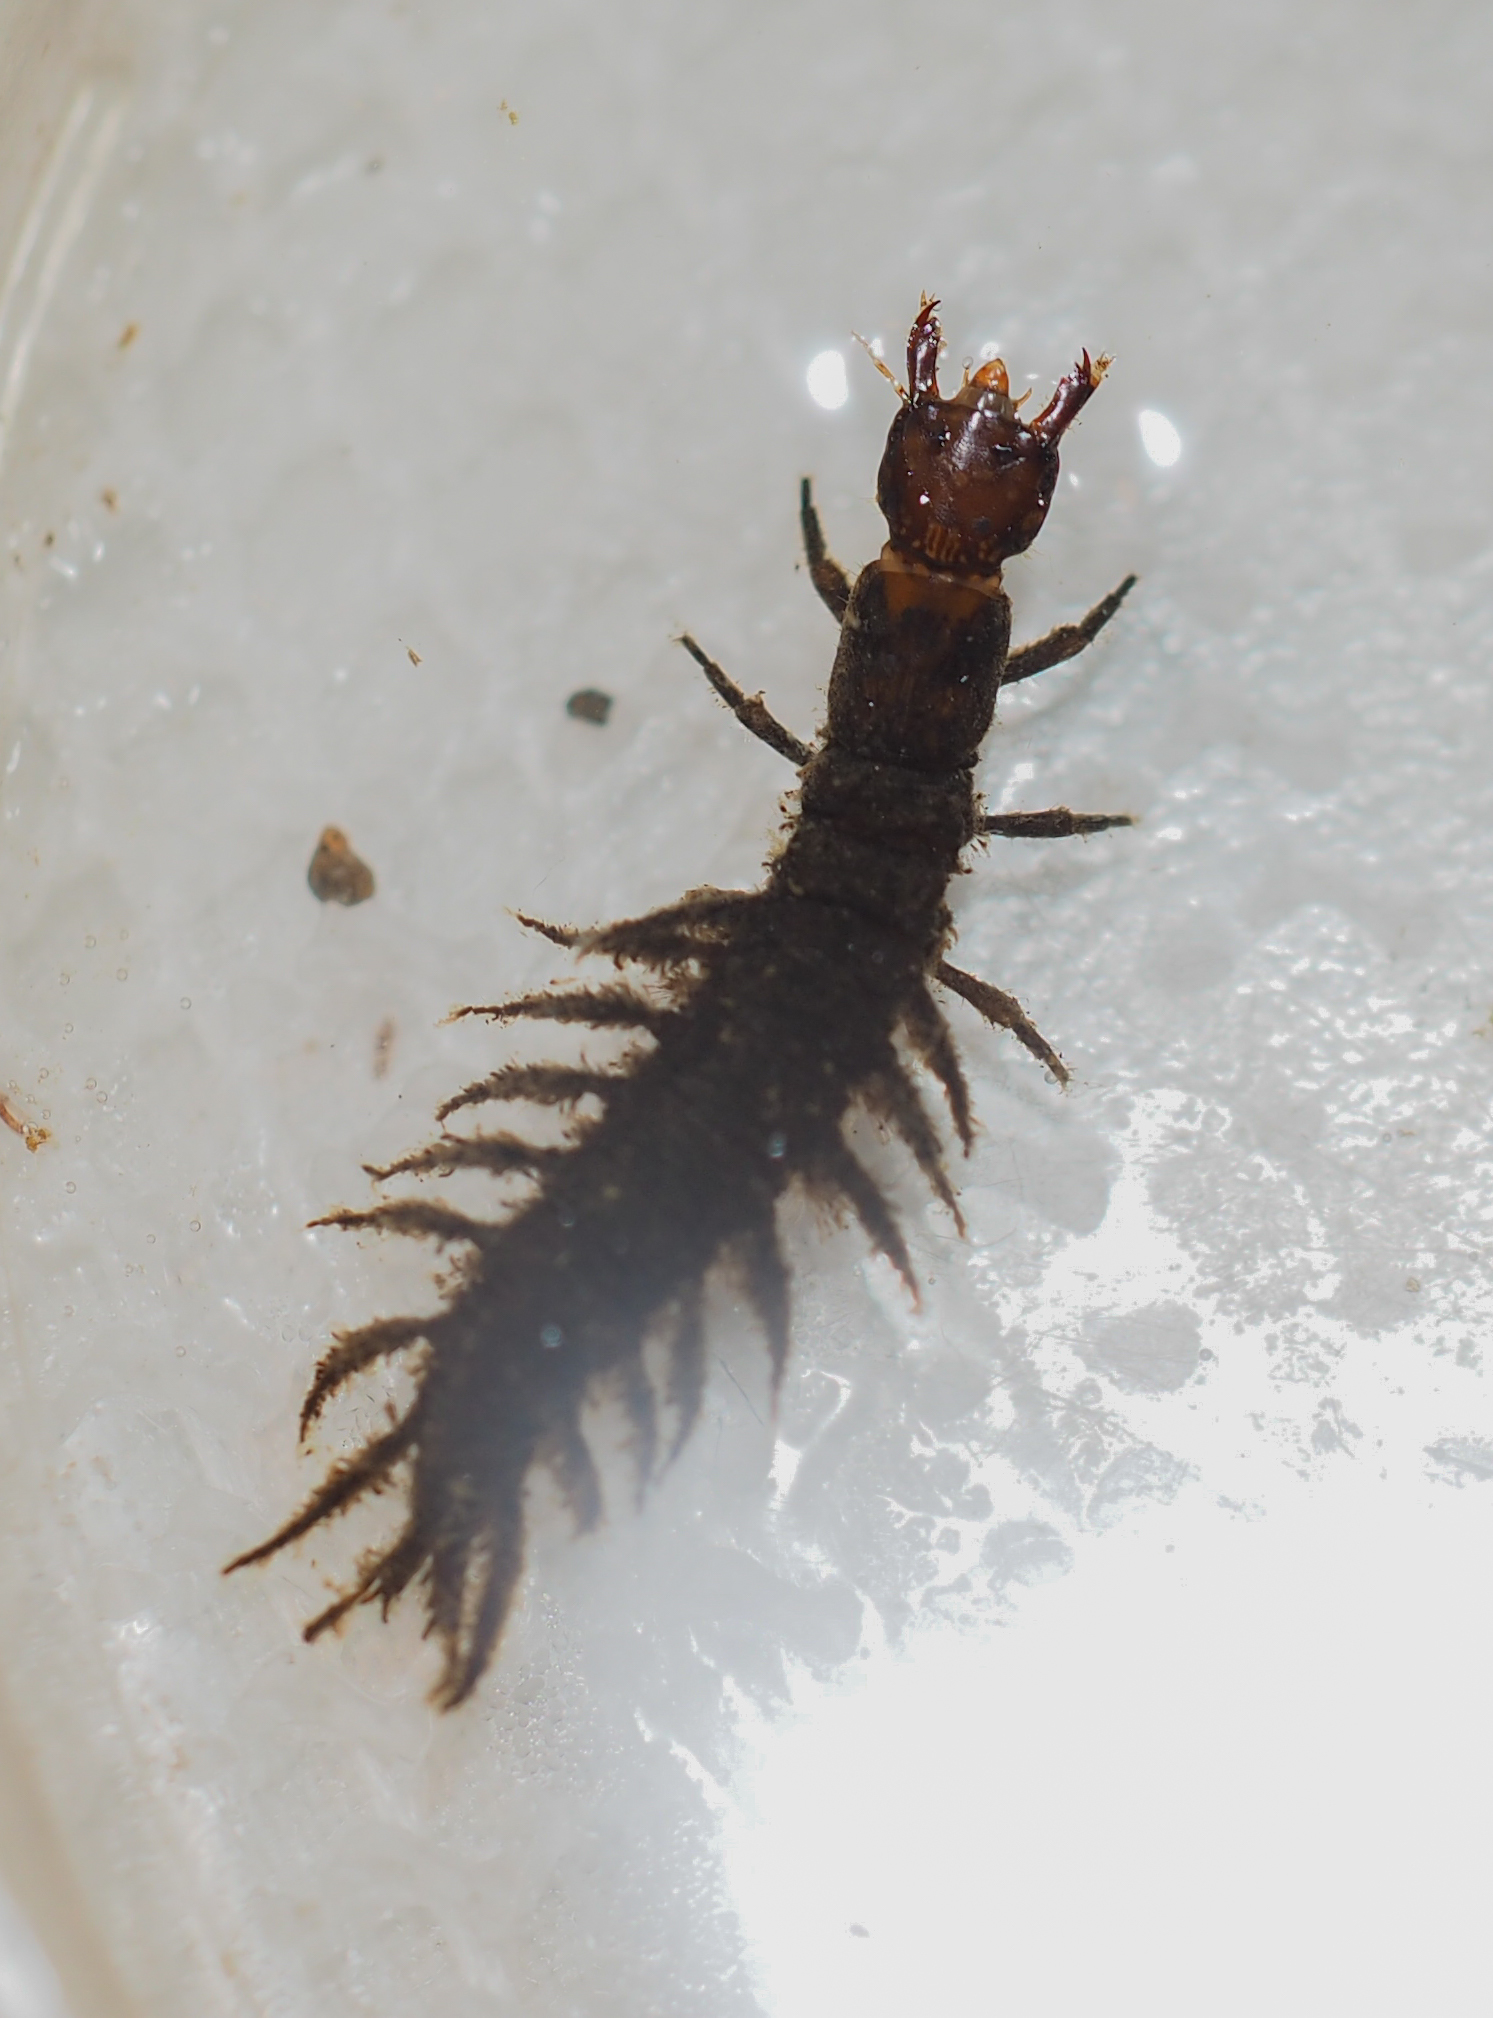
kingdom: Animalia
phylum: Arthropoda
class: Insecta
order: Megaloptera
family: Corydalidae
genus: Corydalus
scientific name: Corydalus cornutus
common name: Dobsonfly
